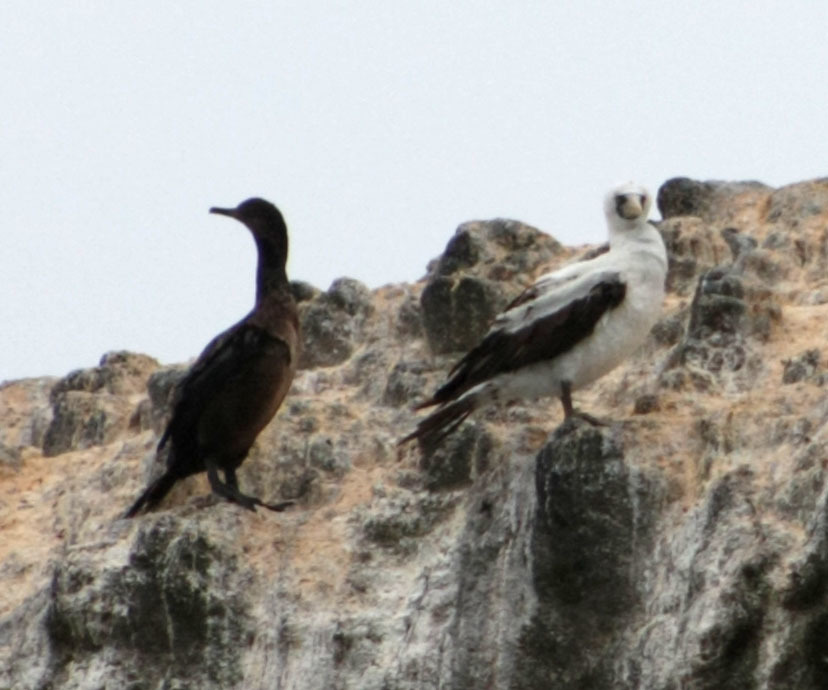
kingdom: Animalia
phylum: Chordata
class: Aves
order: Suliformes
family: Sulidae
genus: Sula
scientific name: Sula granti
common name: Nazca booby
